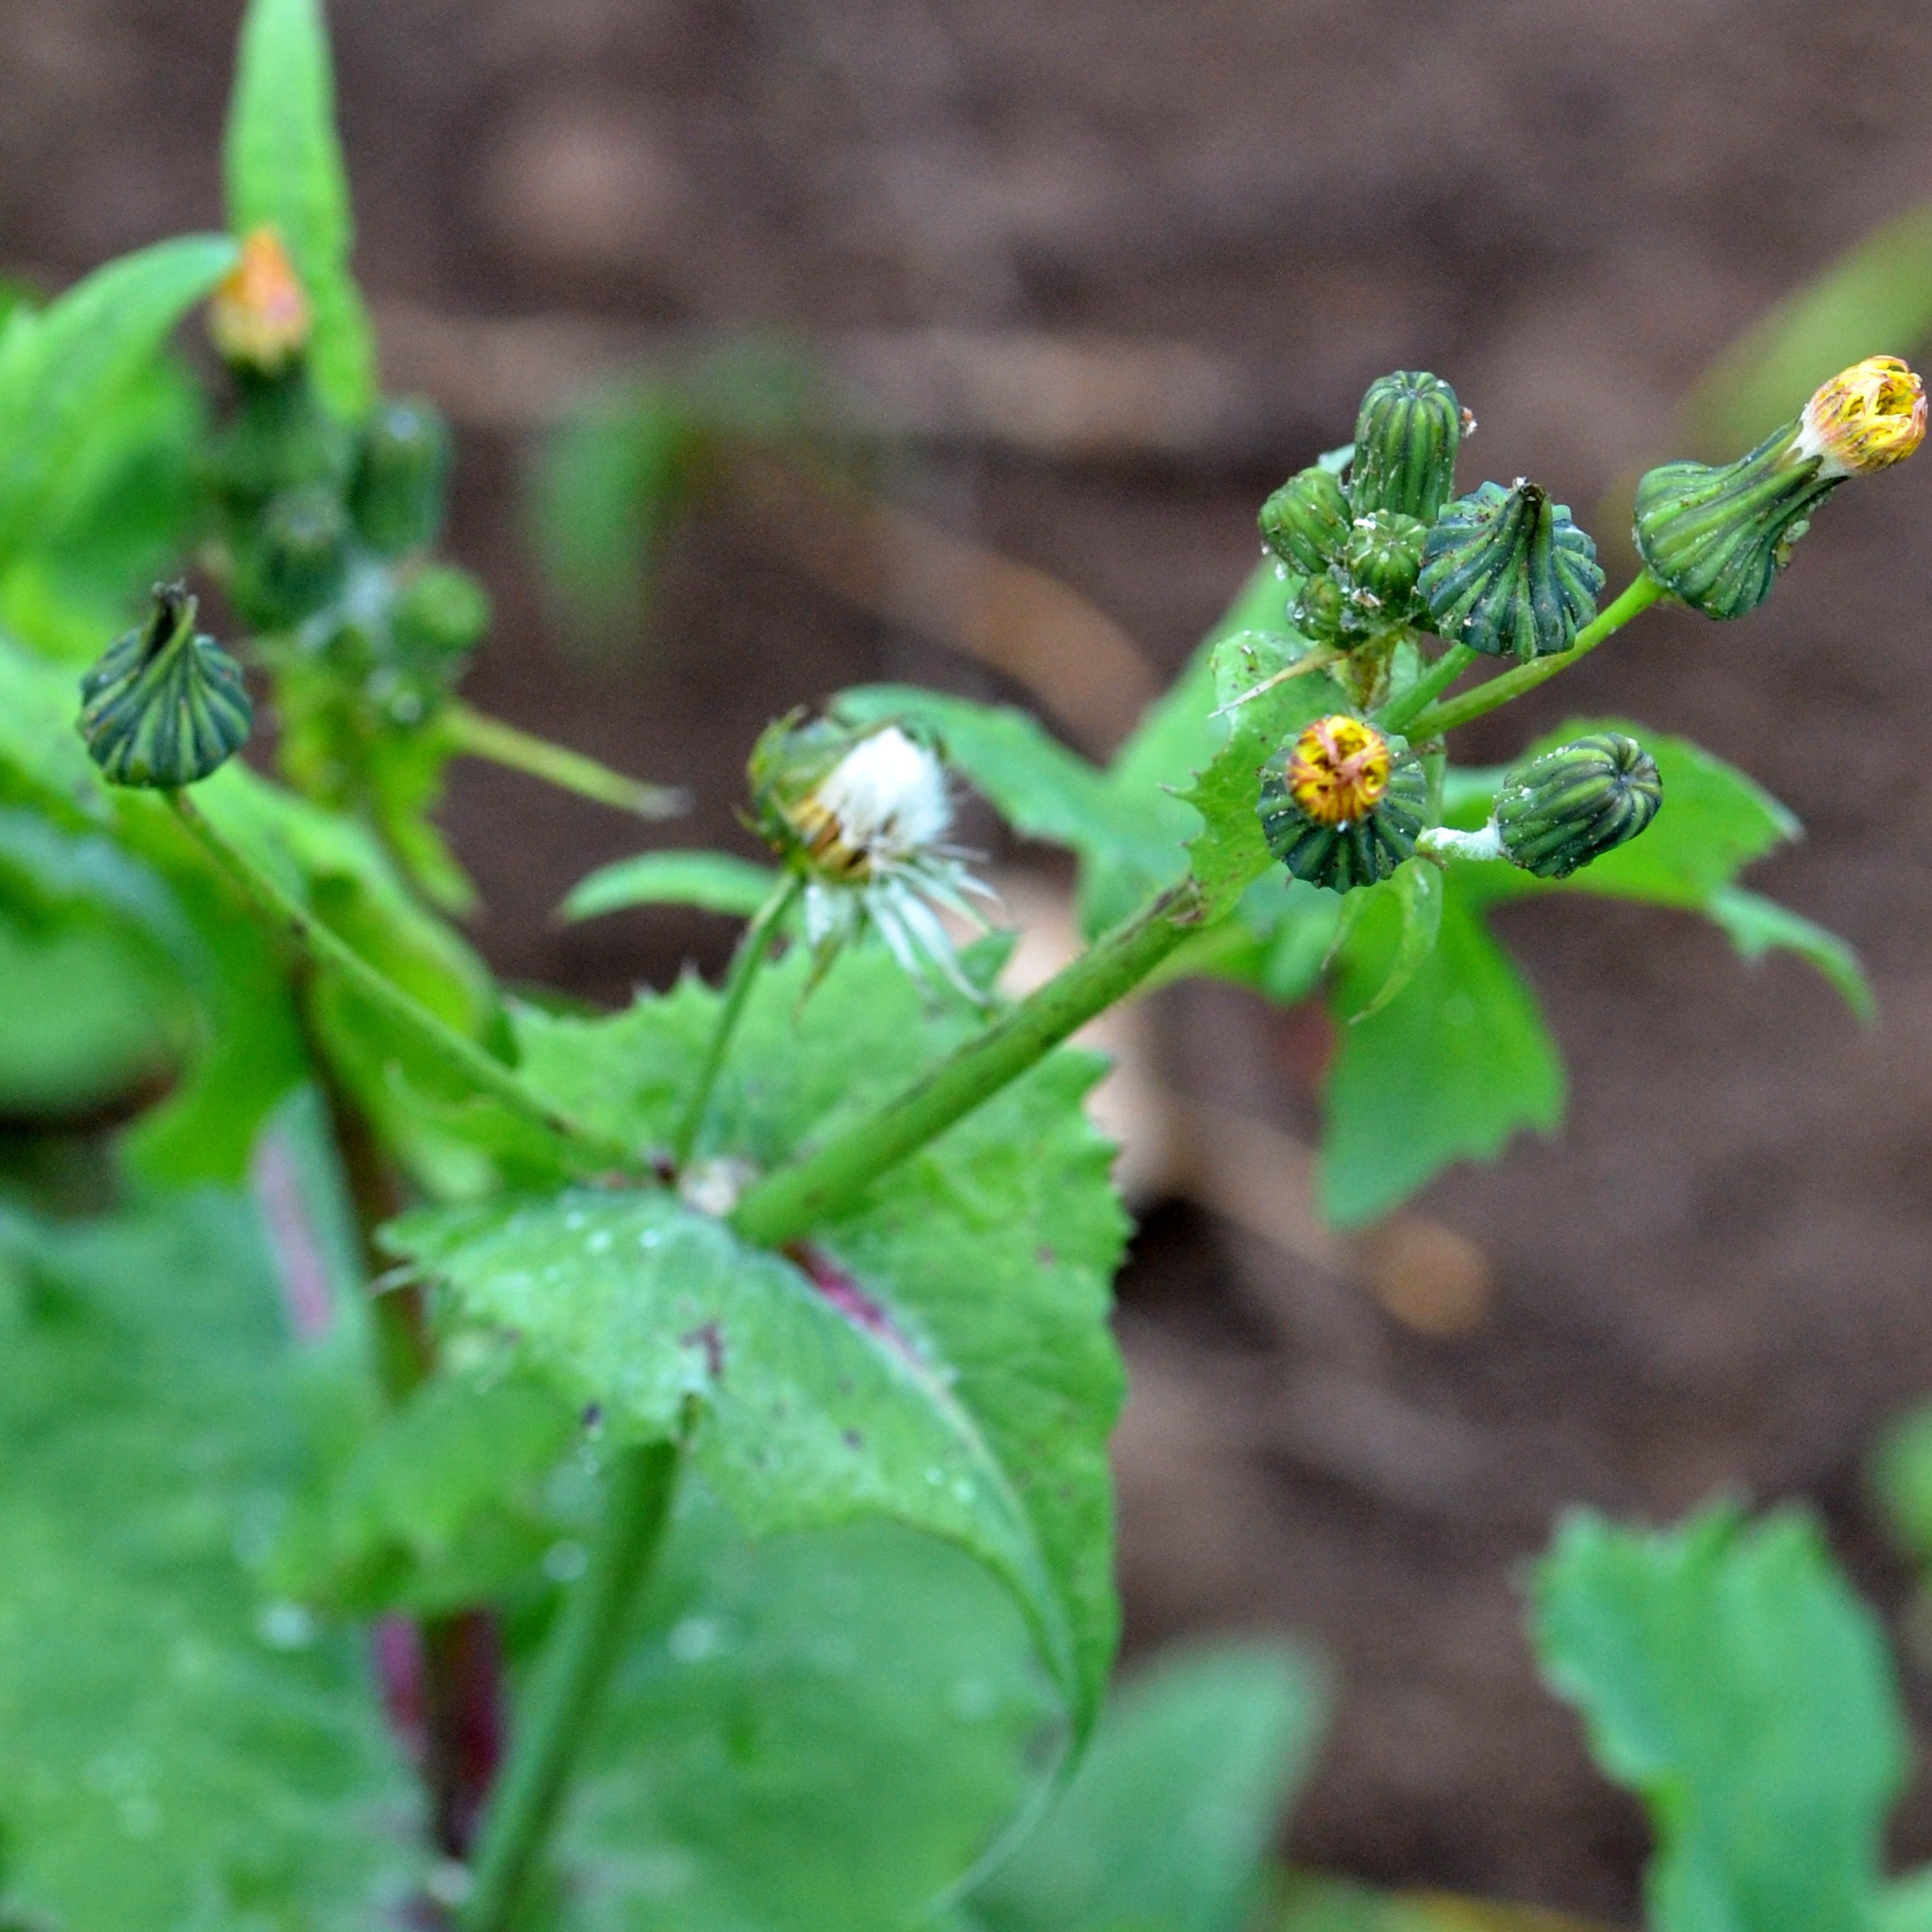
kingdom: Plantae
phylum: Tracheophyta
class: Magnoliopsida
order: Asterales
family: Asteraceae
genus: Sonchus
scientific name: Sonchus oleraceus
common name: Common sowthistle
